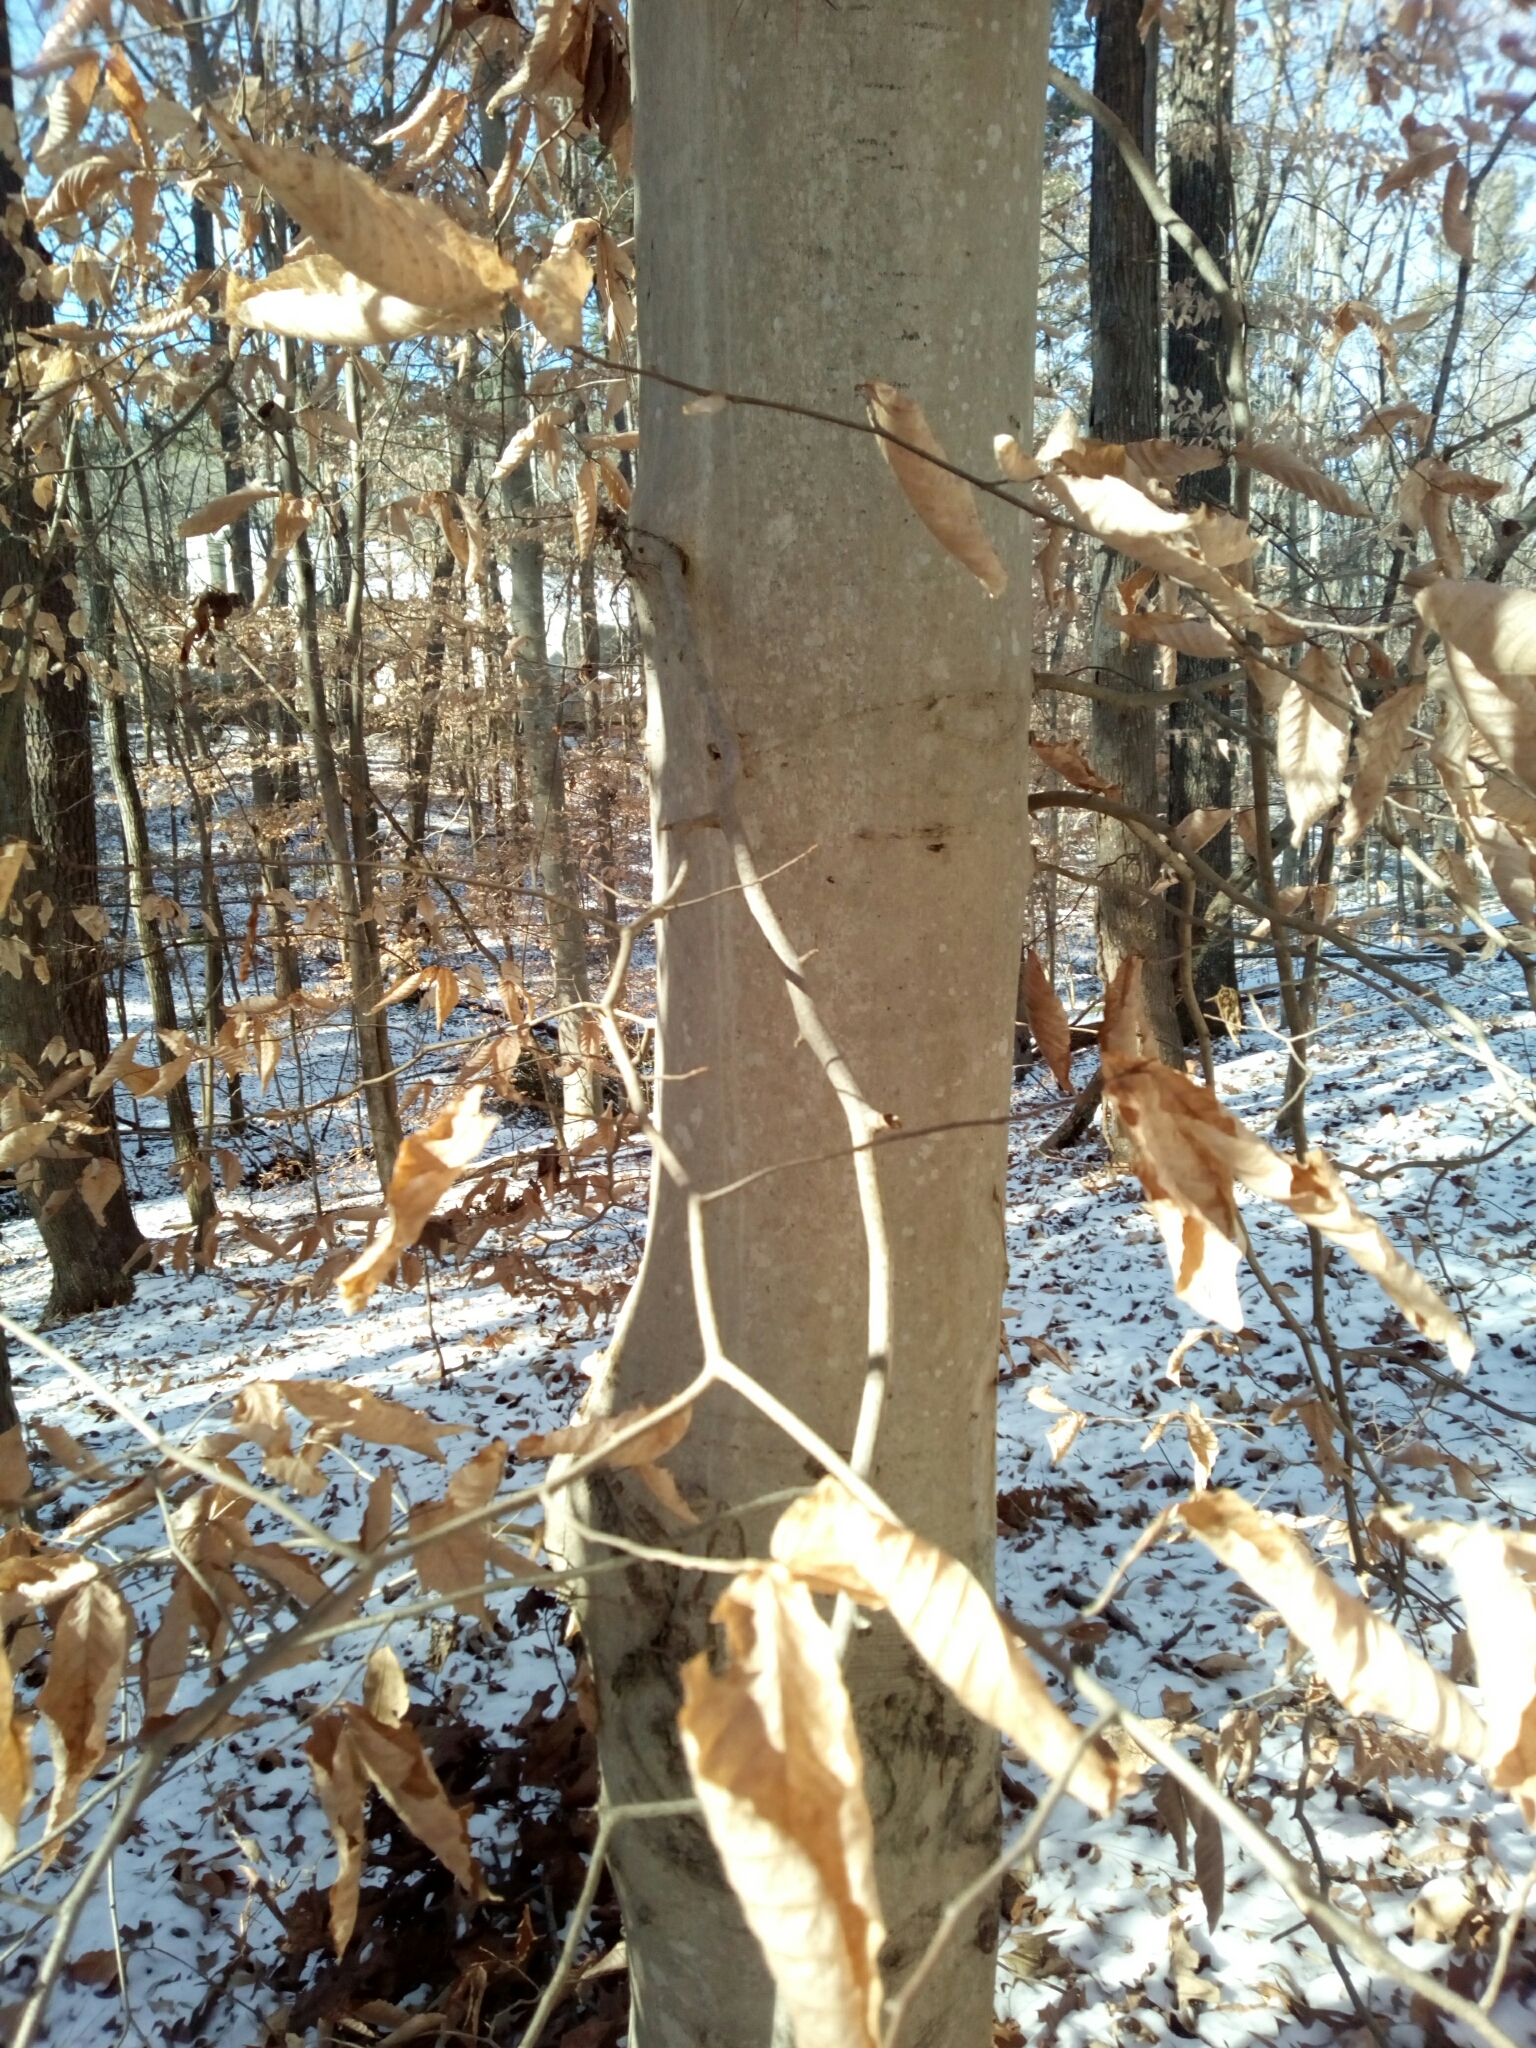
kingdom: Plantae
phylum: Tracheophyta
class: Magnoliopsida
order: Fagales
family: Fagaceae
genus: Fagus
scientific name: Fagus grandifolia
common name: American beech
